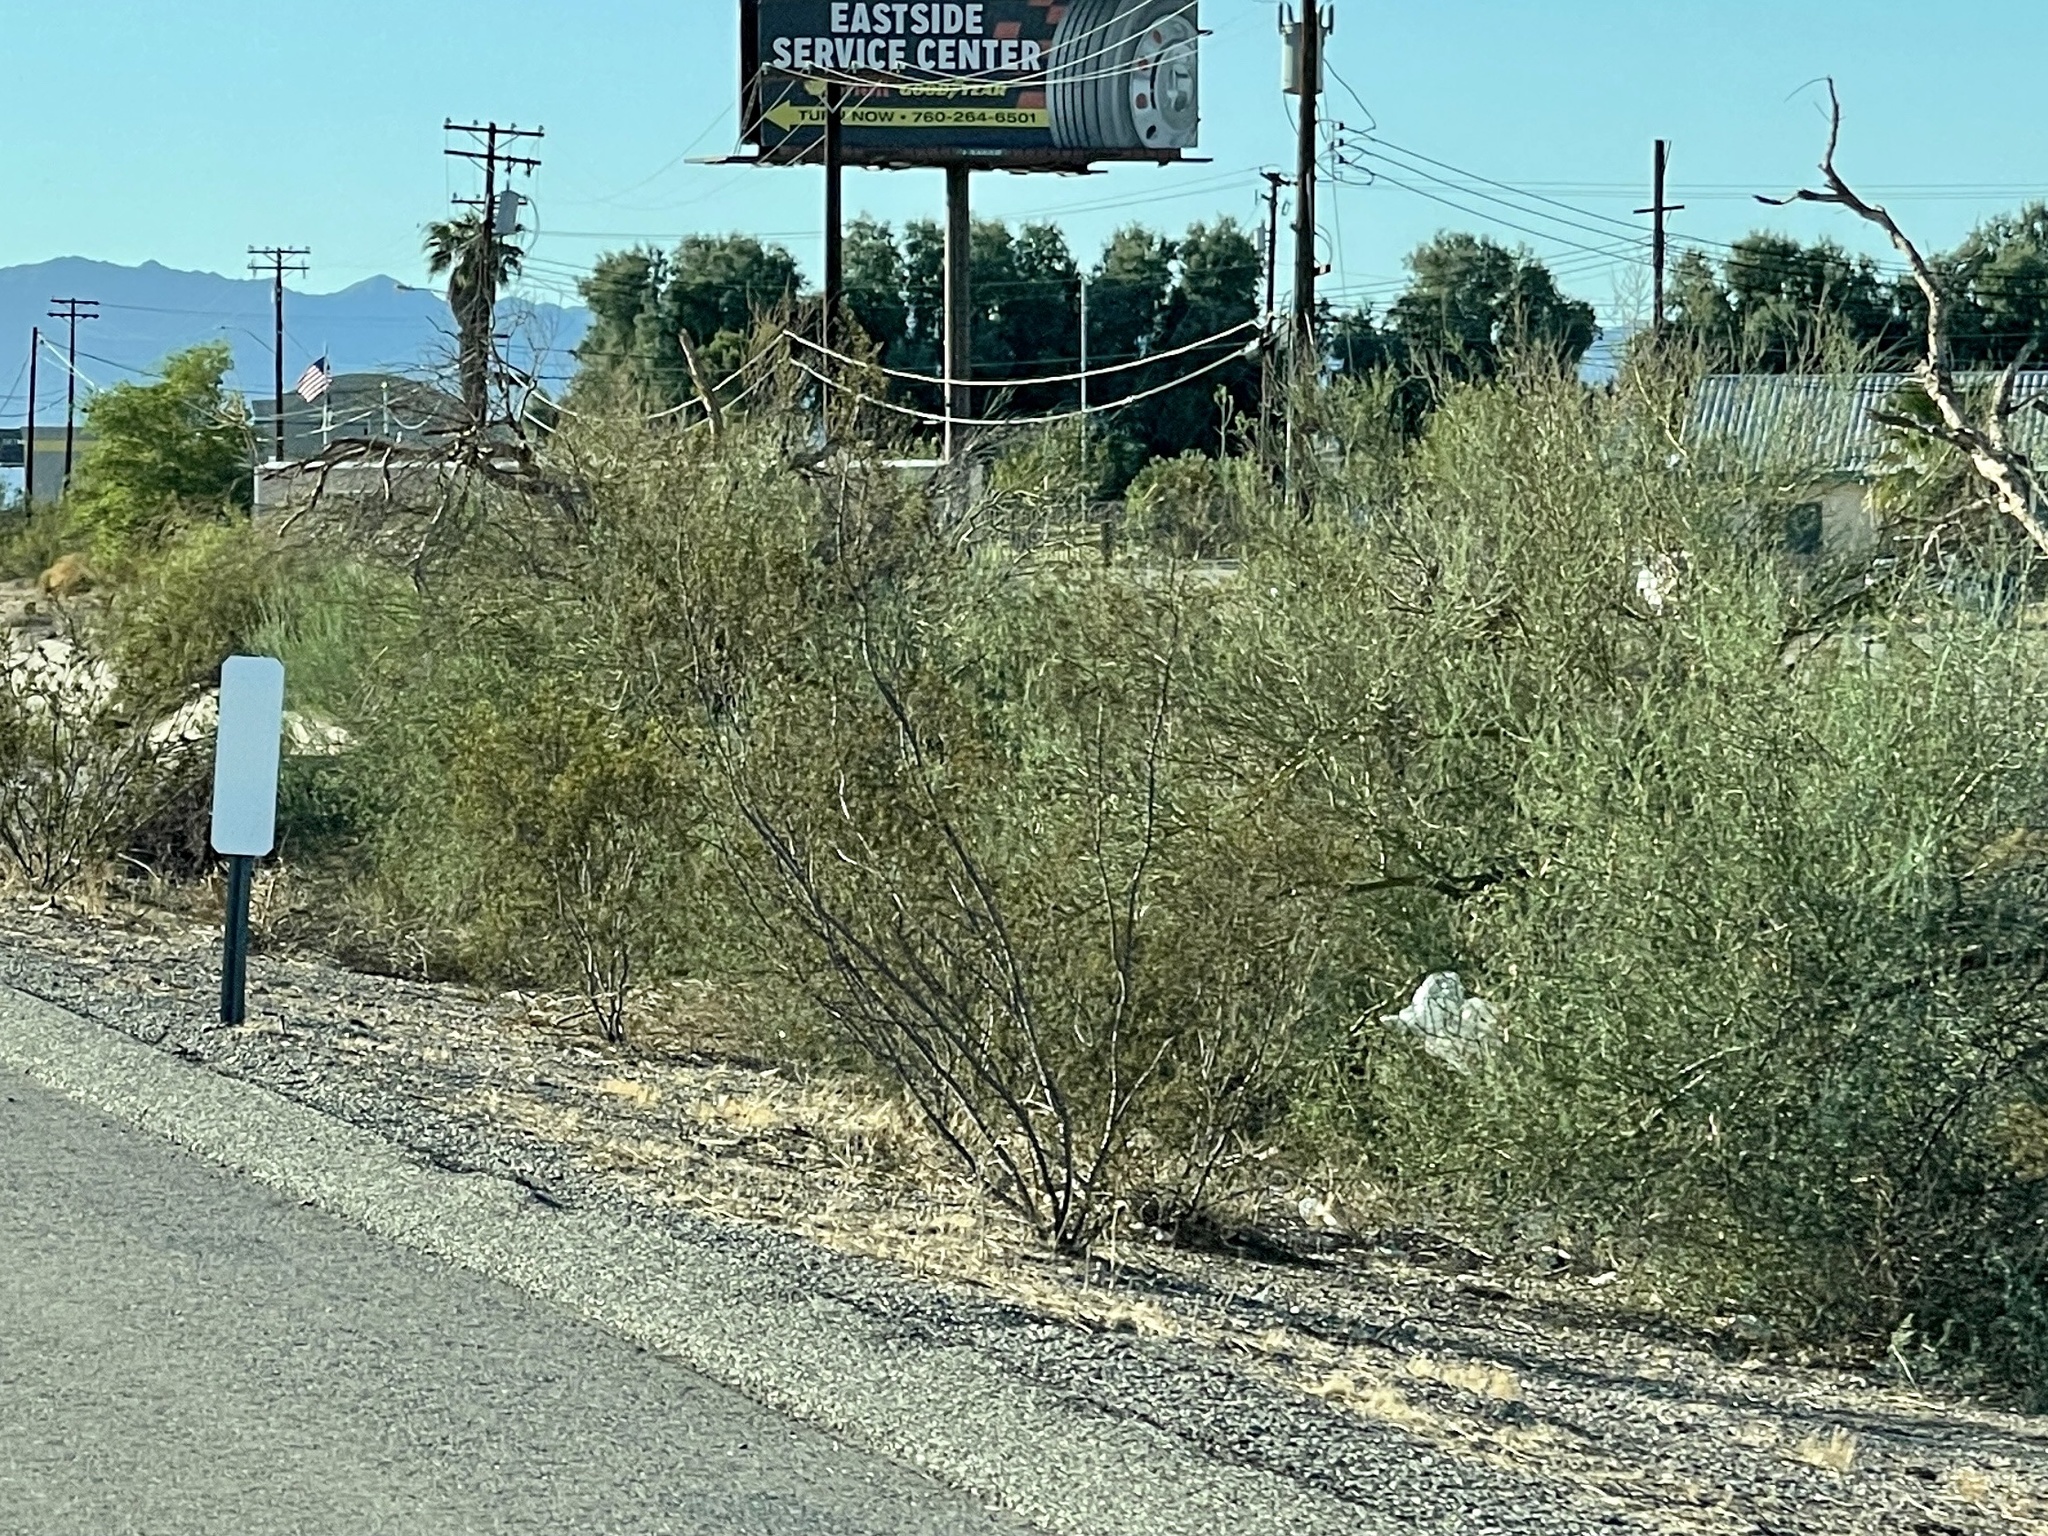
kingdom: Plantae
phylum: Tracheophyta
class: Magnoliopsida
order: Zygophyllales
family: Zygophyllaceae
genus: Larrea
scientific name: Larrea tridentata
